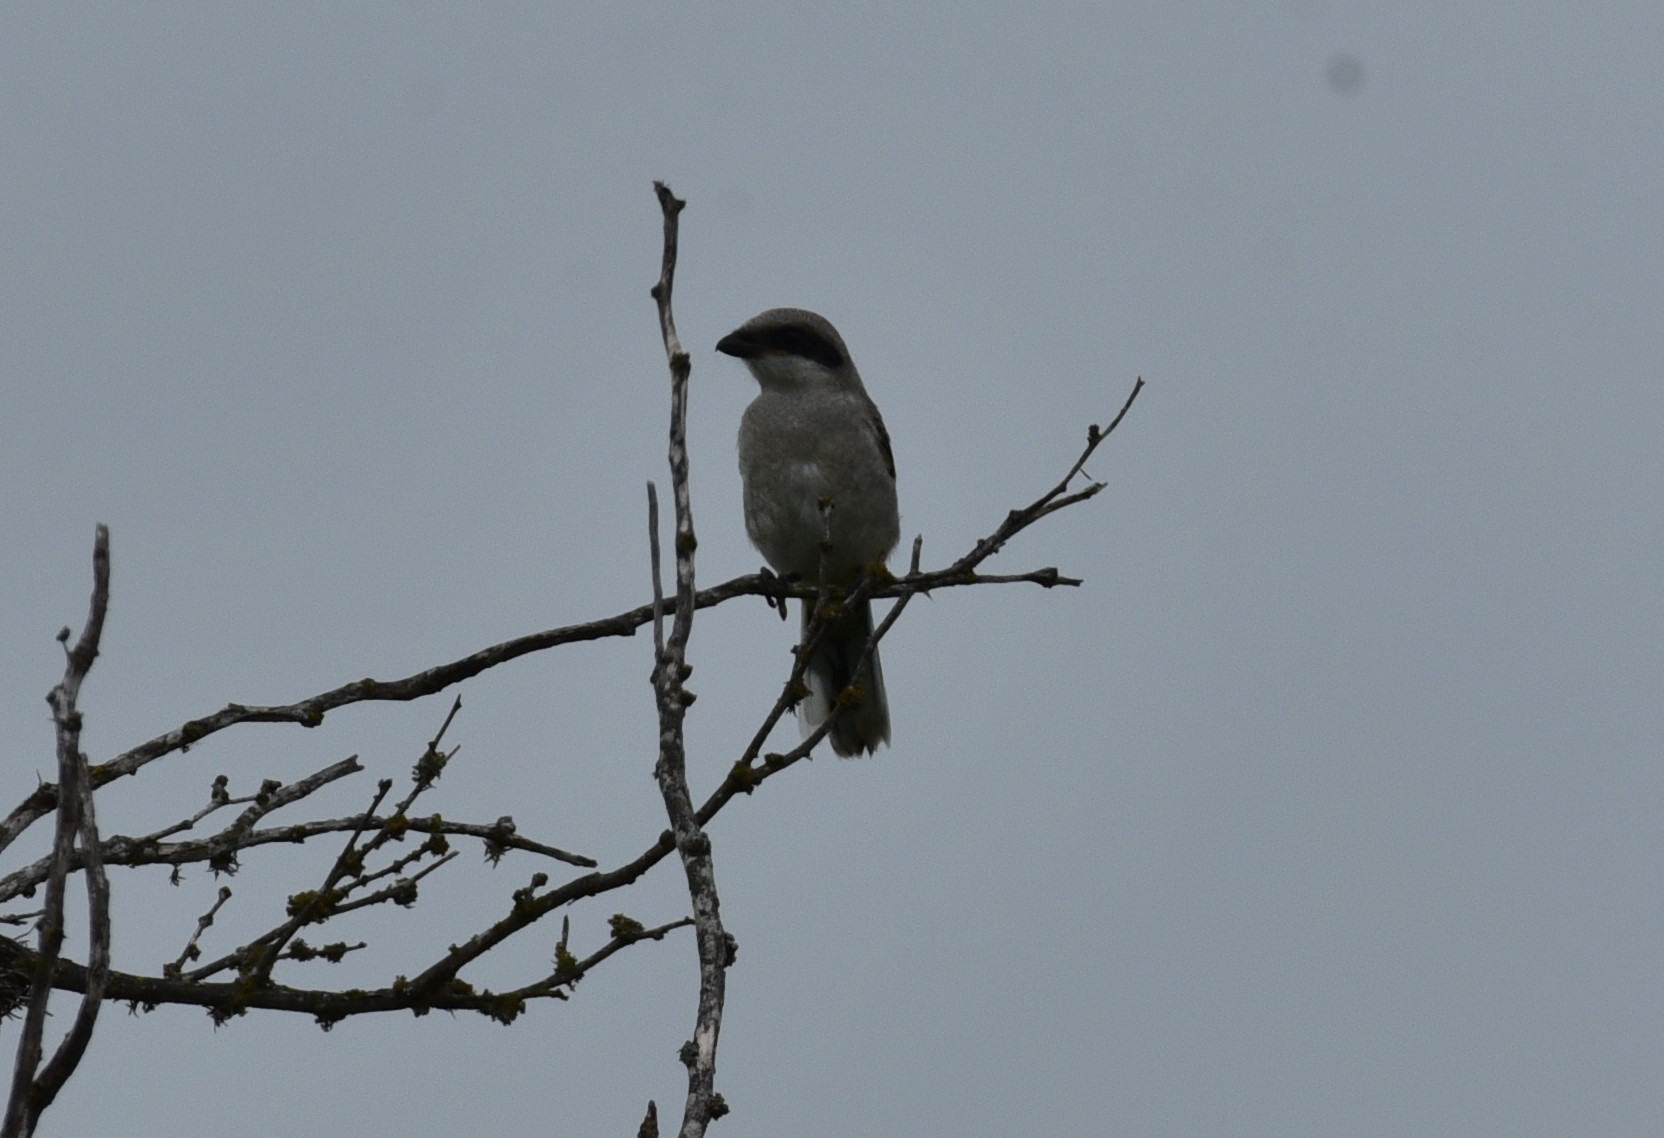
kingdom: Animalia
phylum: Chordata
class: Aves
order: Passeriformes
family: Laniidae
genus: Lanius
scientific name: Lanius ludovicianus
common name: Loggerhead shrike
